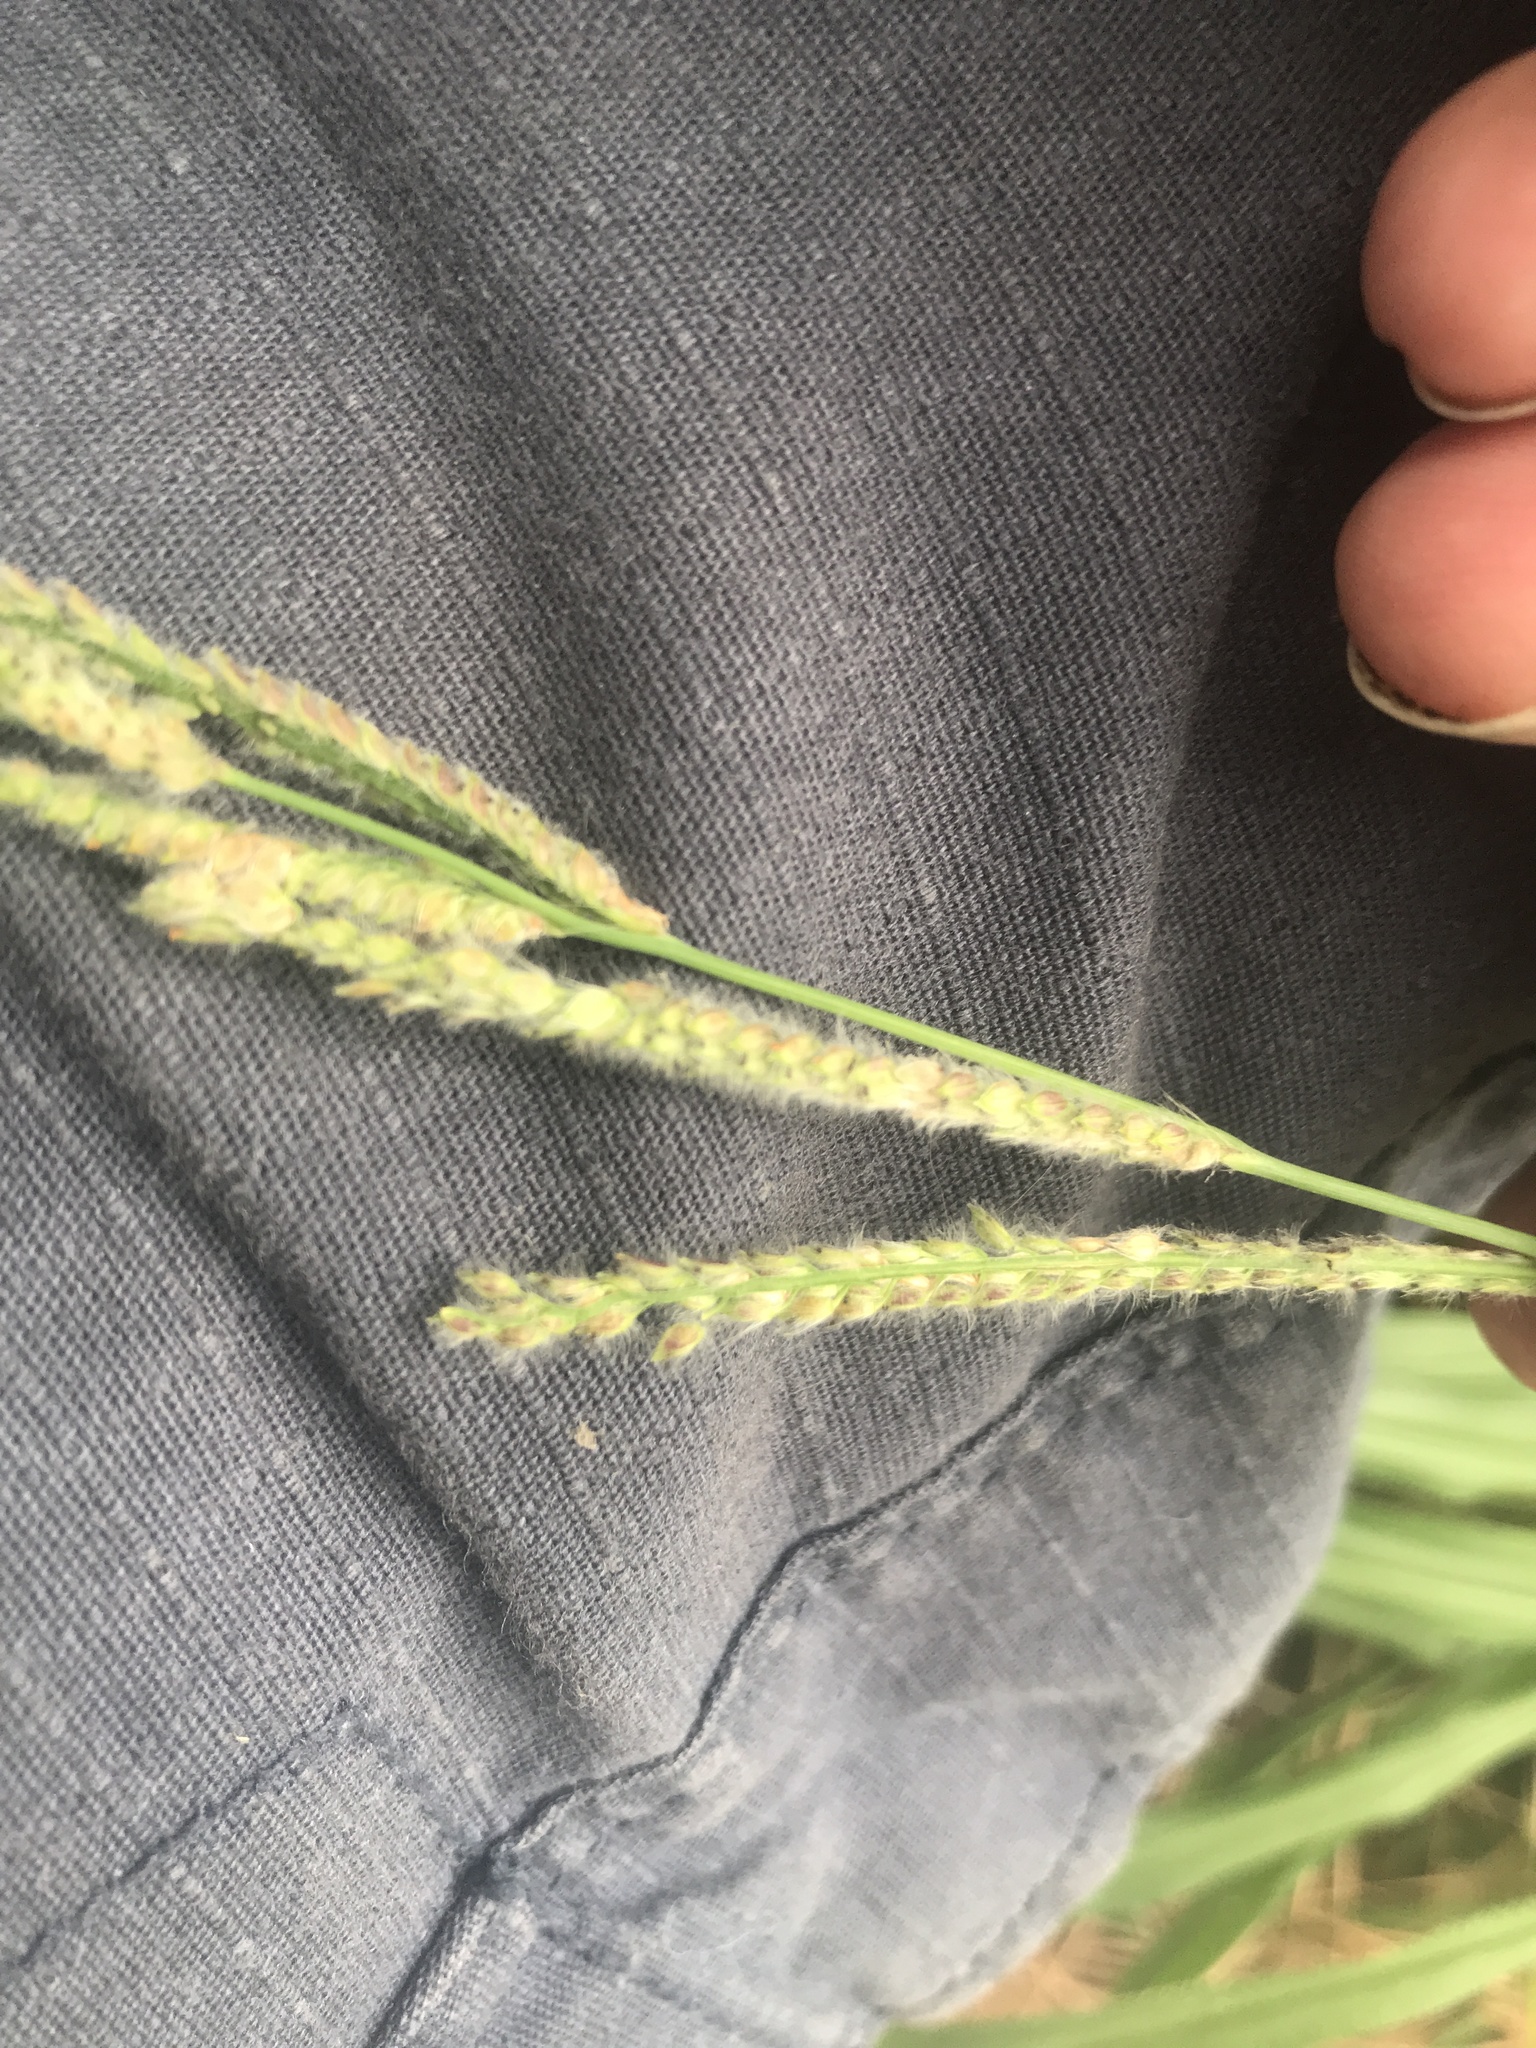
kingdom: Plantae
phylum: Tracheophyta
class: Liliopsida
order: Poales
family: Poaceae
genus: Paspalum
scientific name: Paspalum urvillei
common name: Vasey's grass
